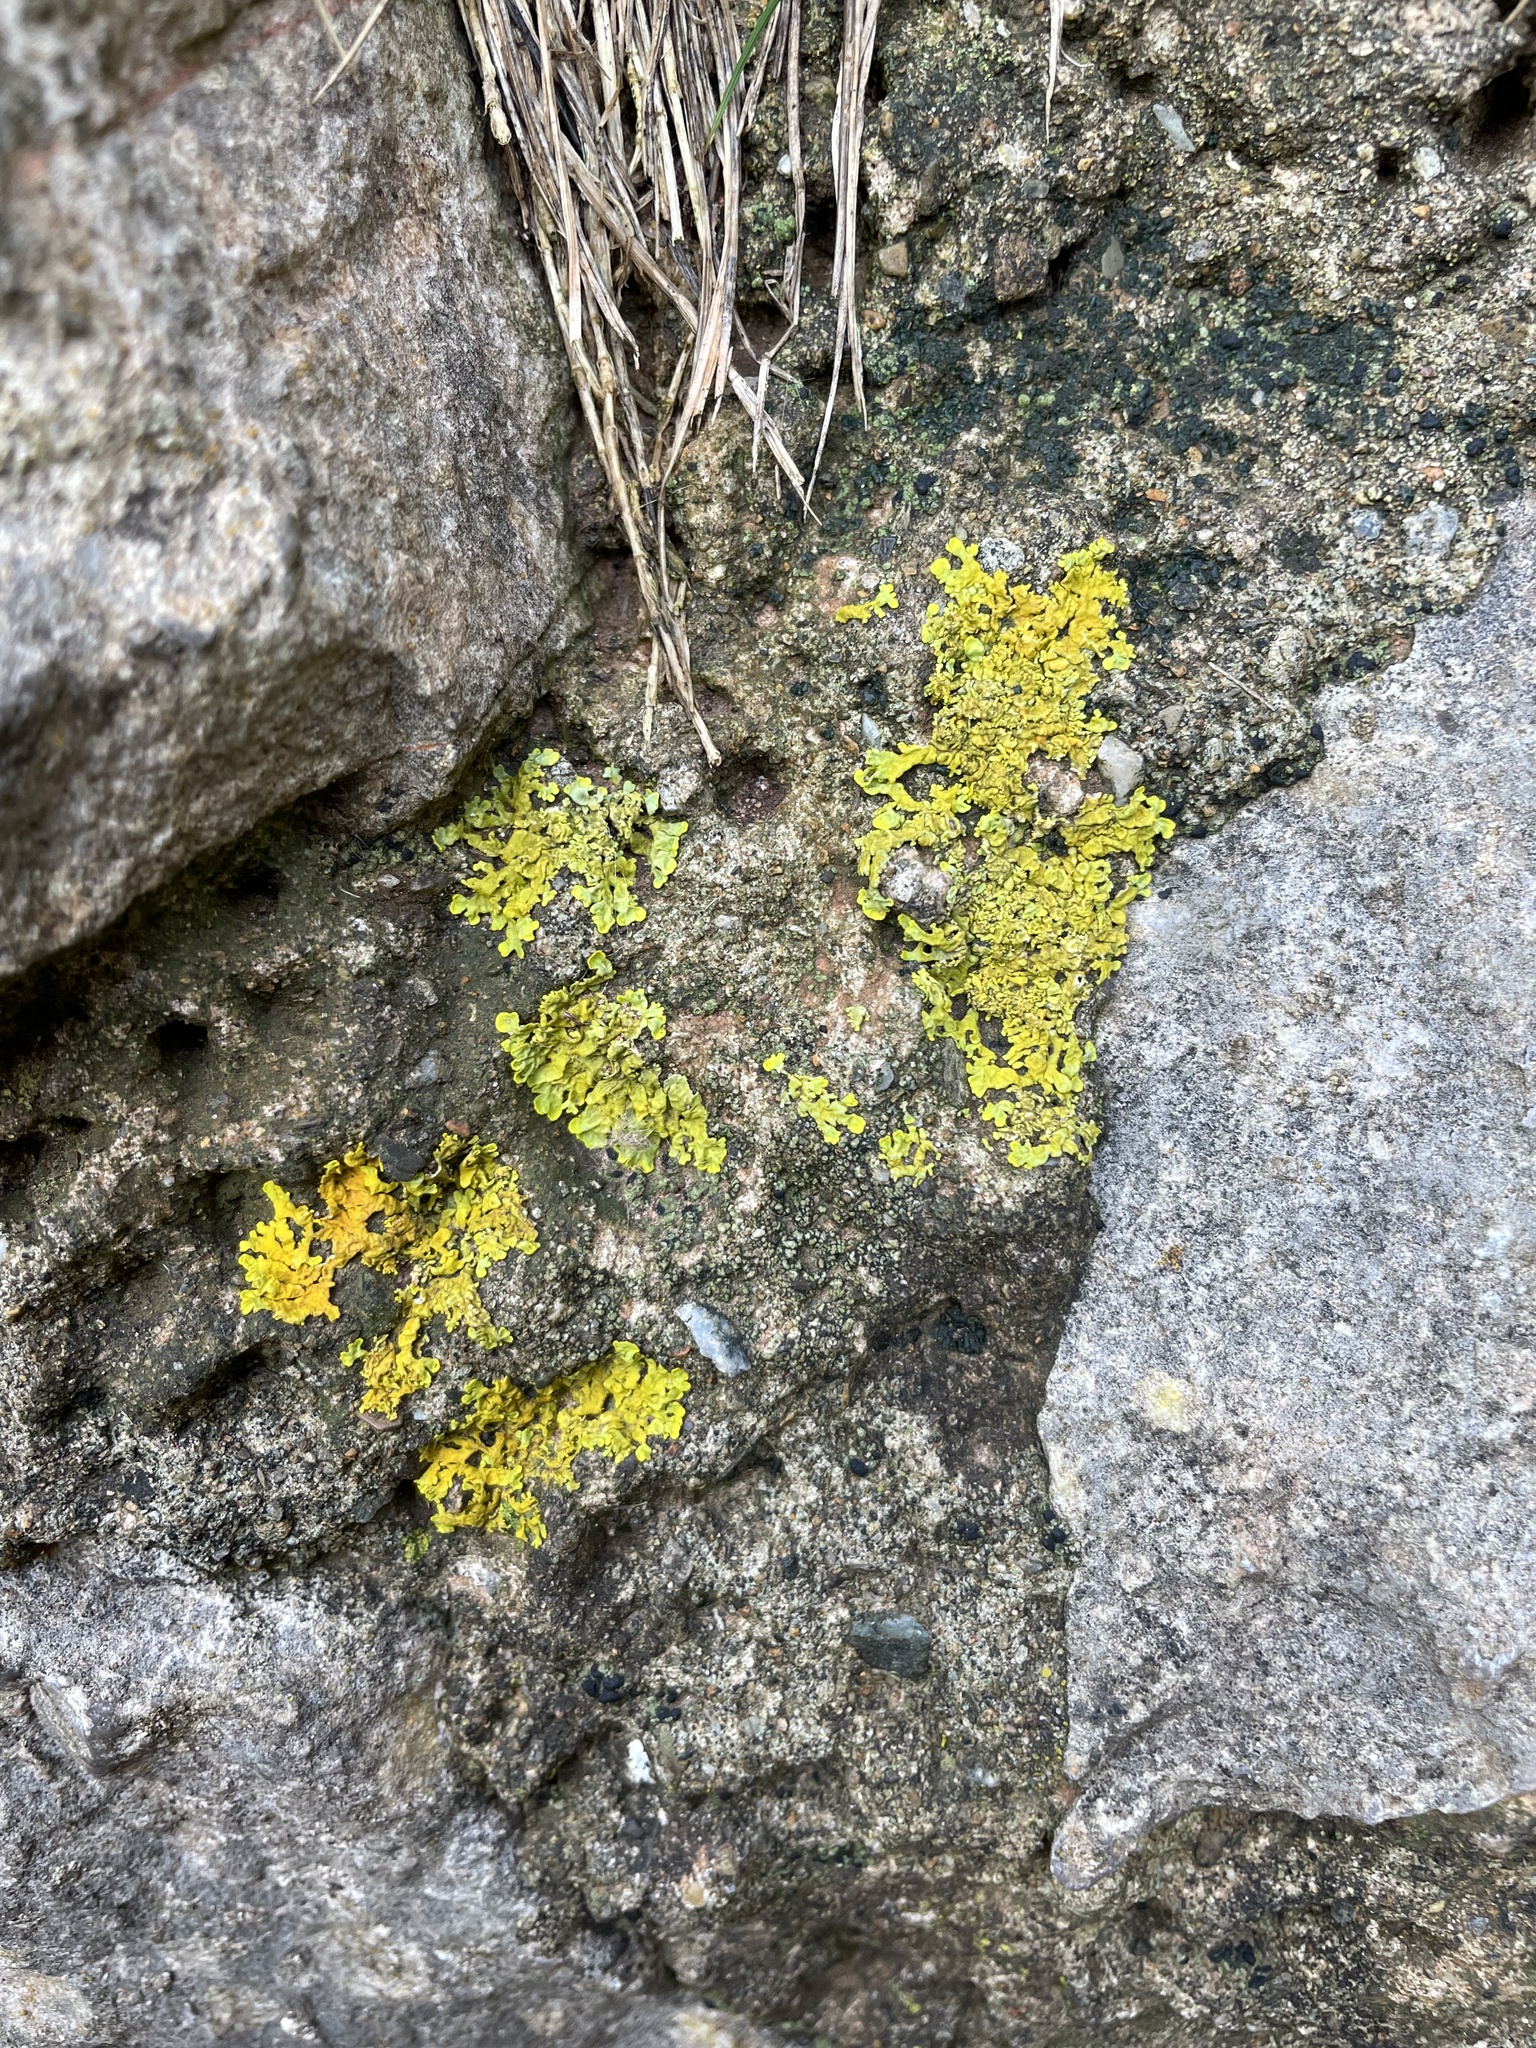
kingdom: Fungi
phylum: Ascomycota
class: Lecanoromycetes
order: Teloschistales
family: Teloschistaceae
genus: Xanthoria
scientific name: Xanthoria aureola
